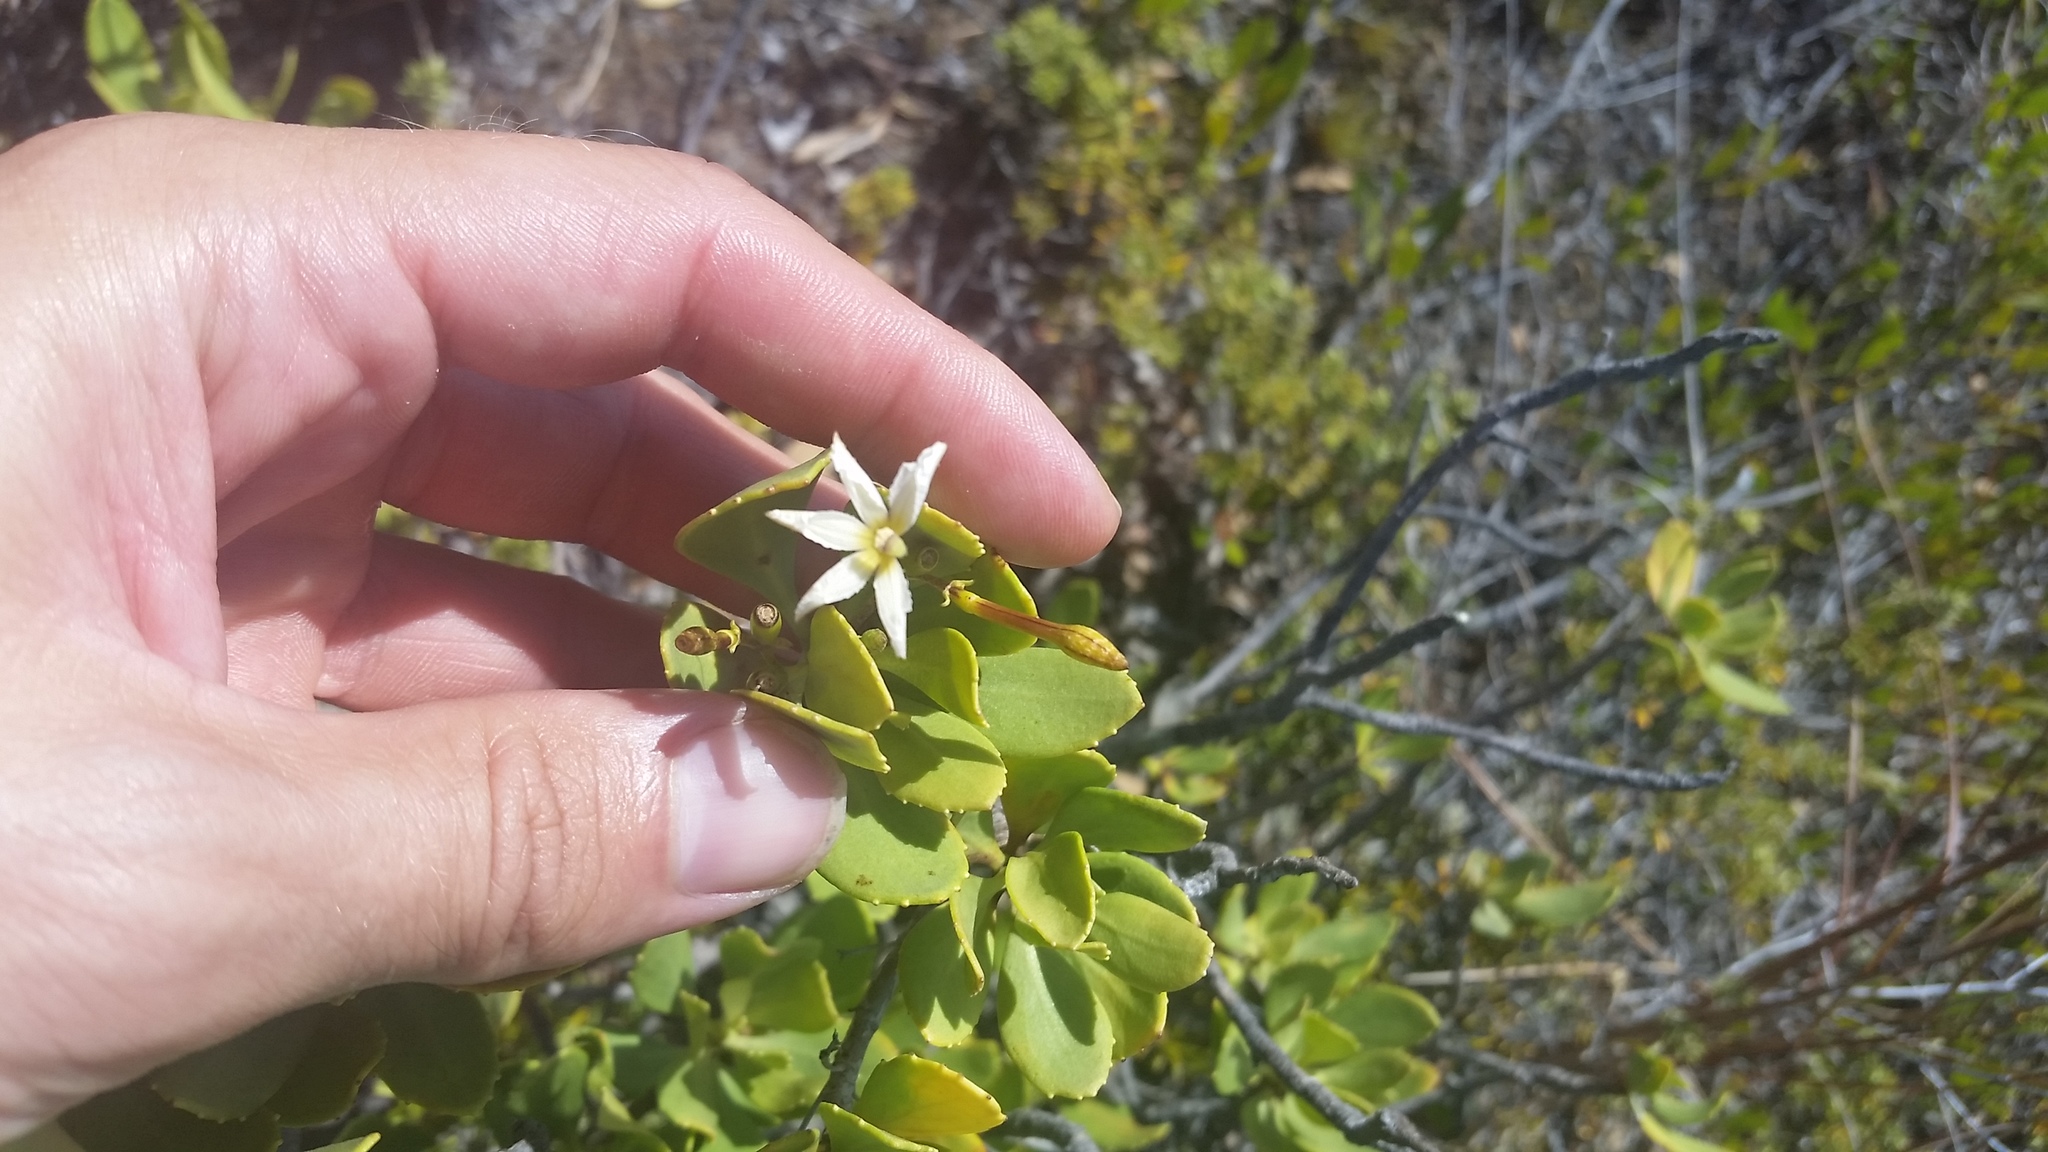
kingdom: Plantae
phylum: Tracheophyta
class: Magnoliopsida
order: Asterales
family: Goodeniaceae
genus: Scaevola
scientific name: Scaevola kilaueae
